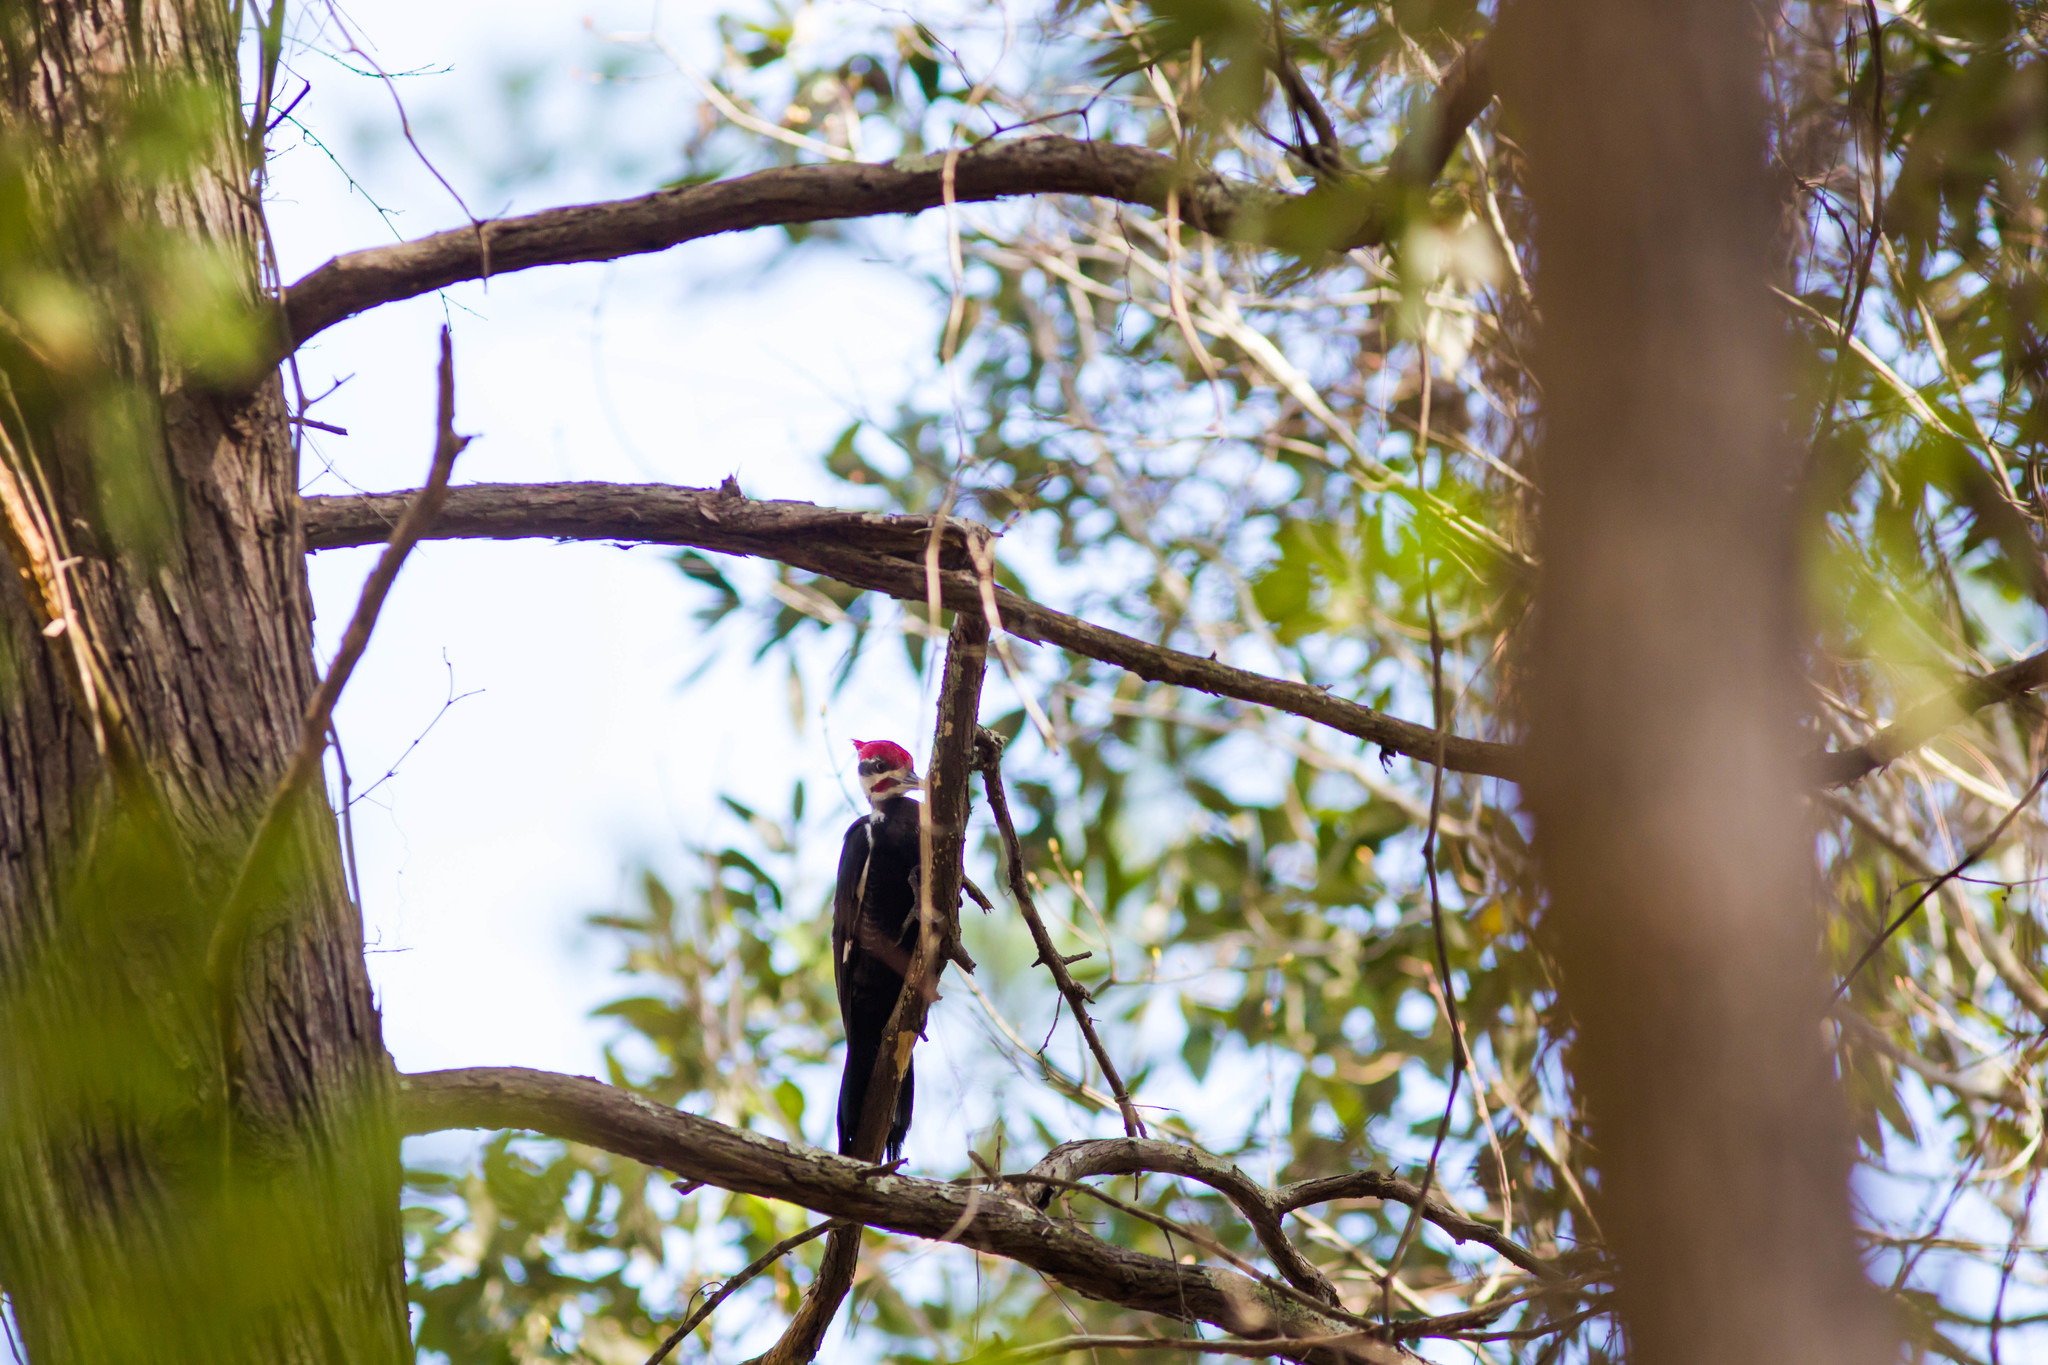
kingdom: Animalia
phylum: Chordata
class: Aves
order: Piciformes
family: Picidae
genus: Dryocopus
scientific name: Dryocopus pileatus
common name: Pileated woodpecker
